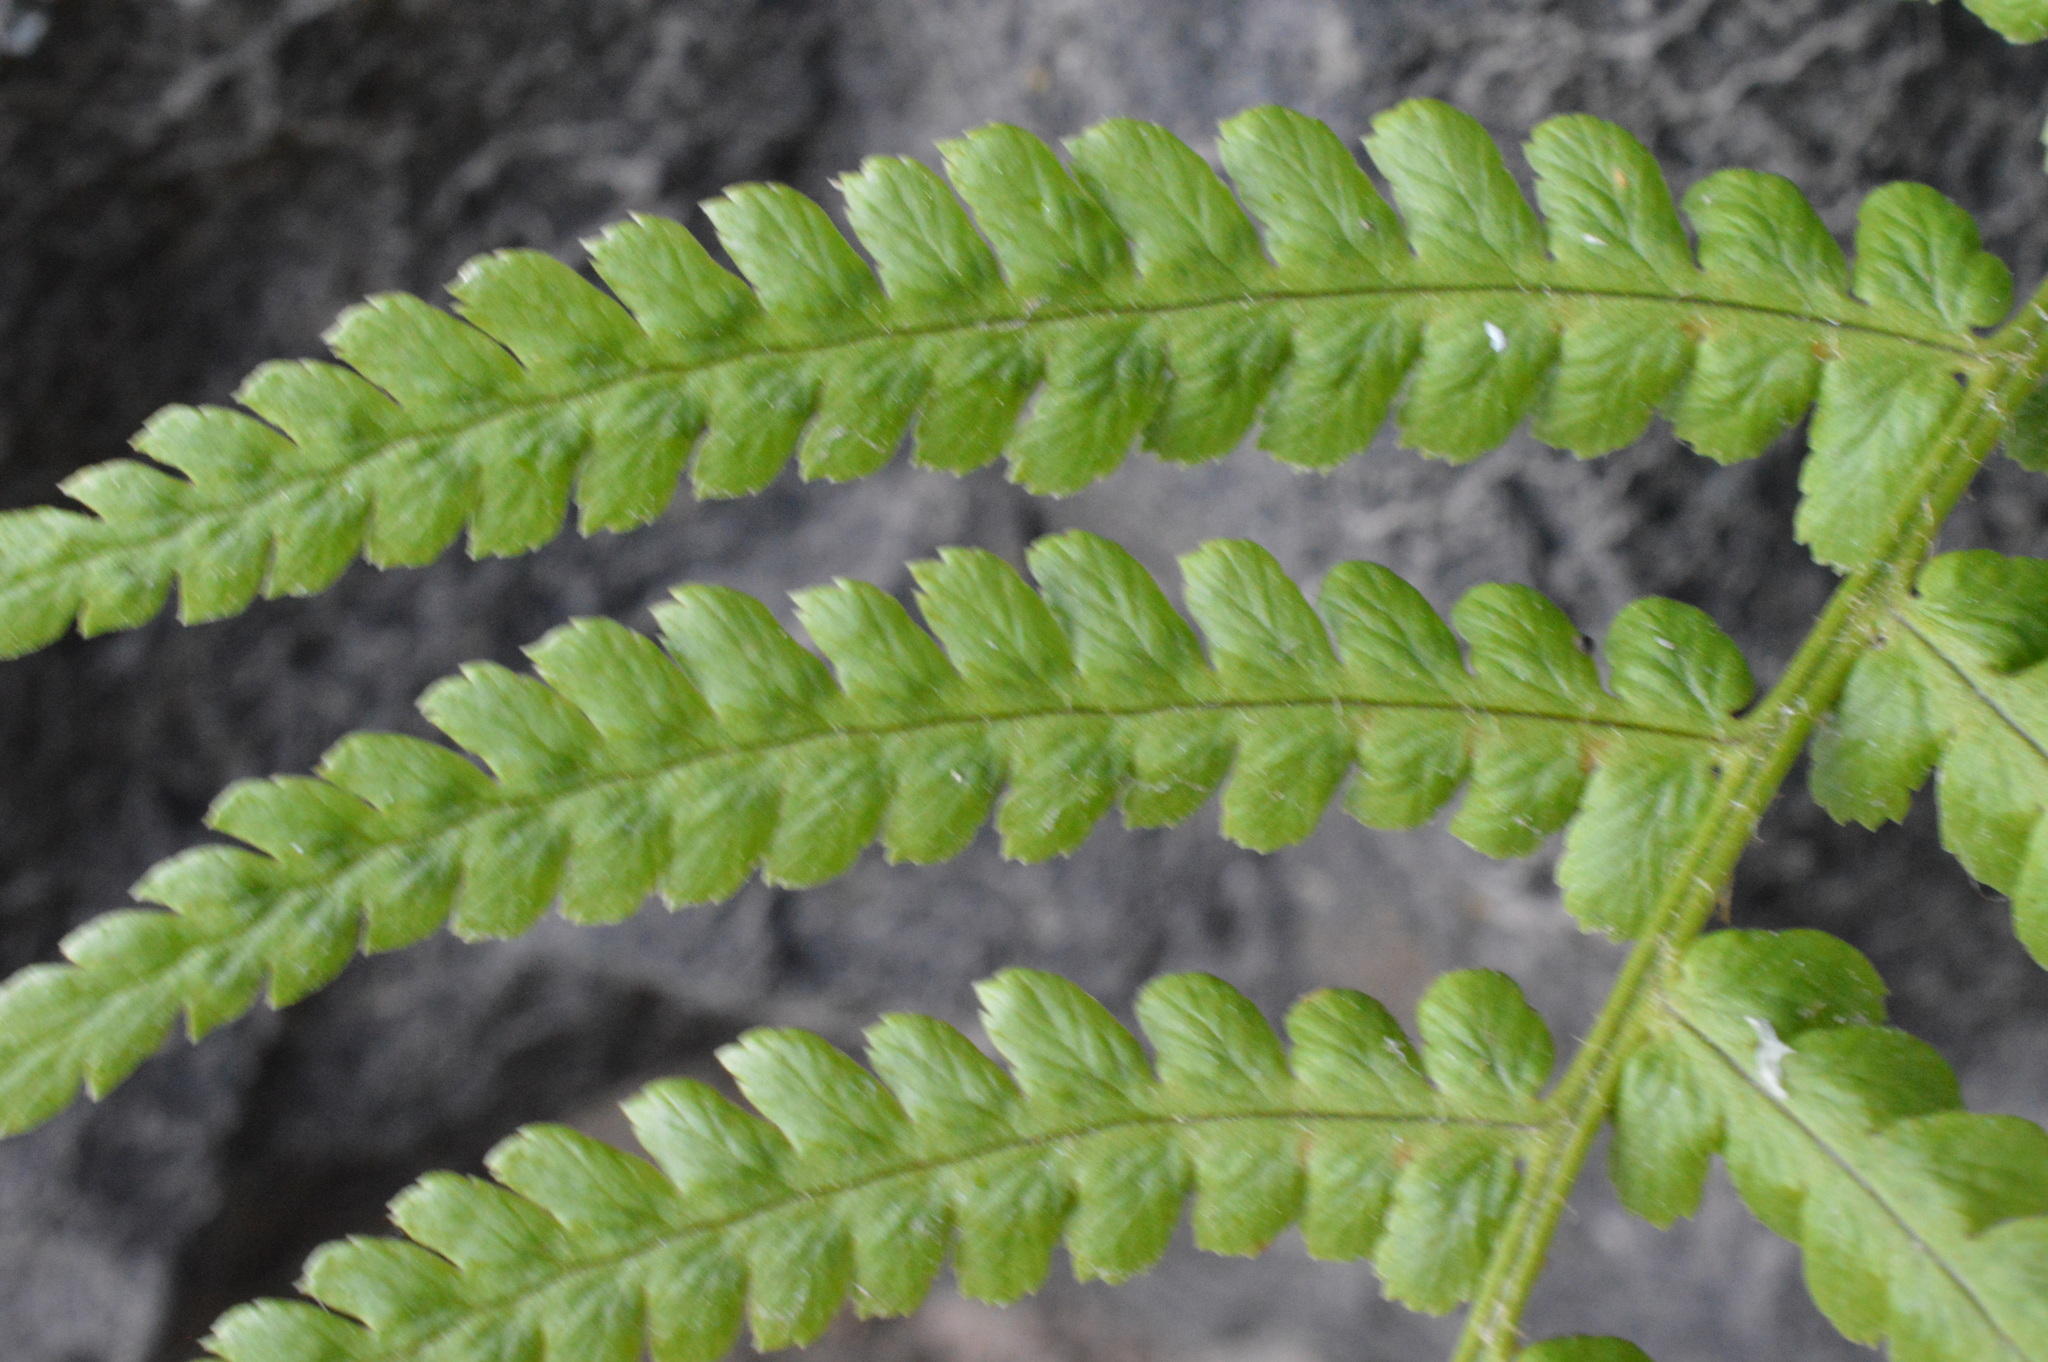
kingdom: Plantae
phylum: Tracheophyta
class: Polypodiopsida
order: Polypodiales
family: Dryopteridaceae
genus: Dryopteris
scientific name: Dryopteris filix-mas
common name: Male fern
